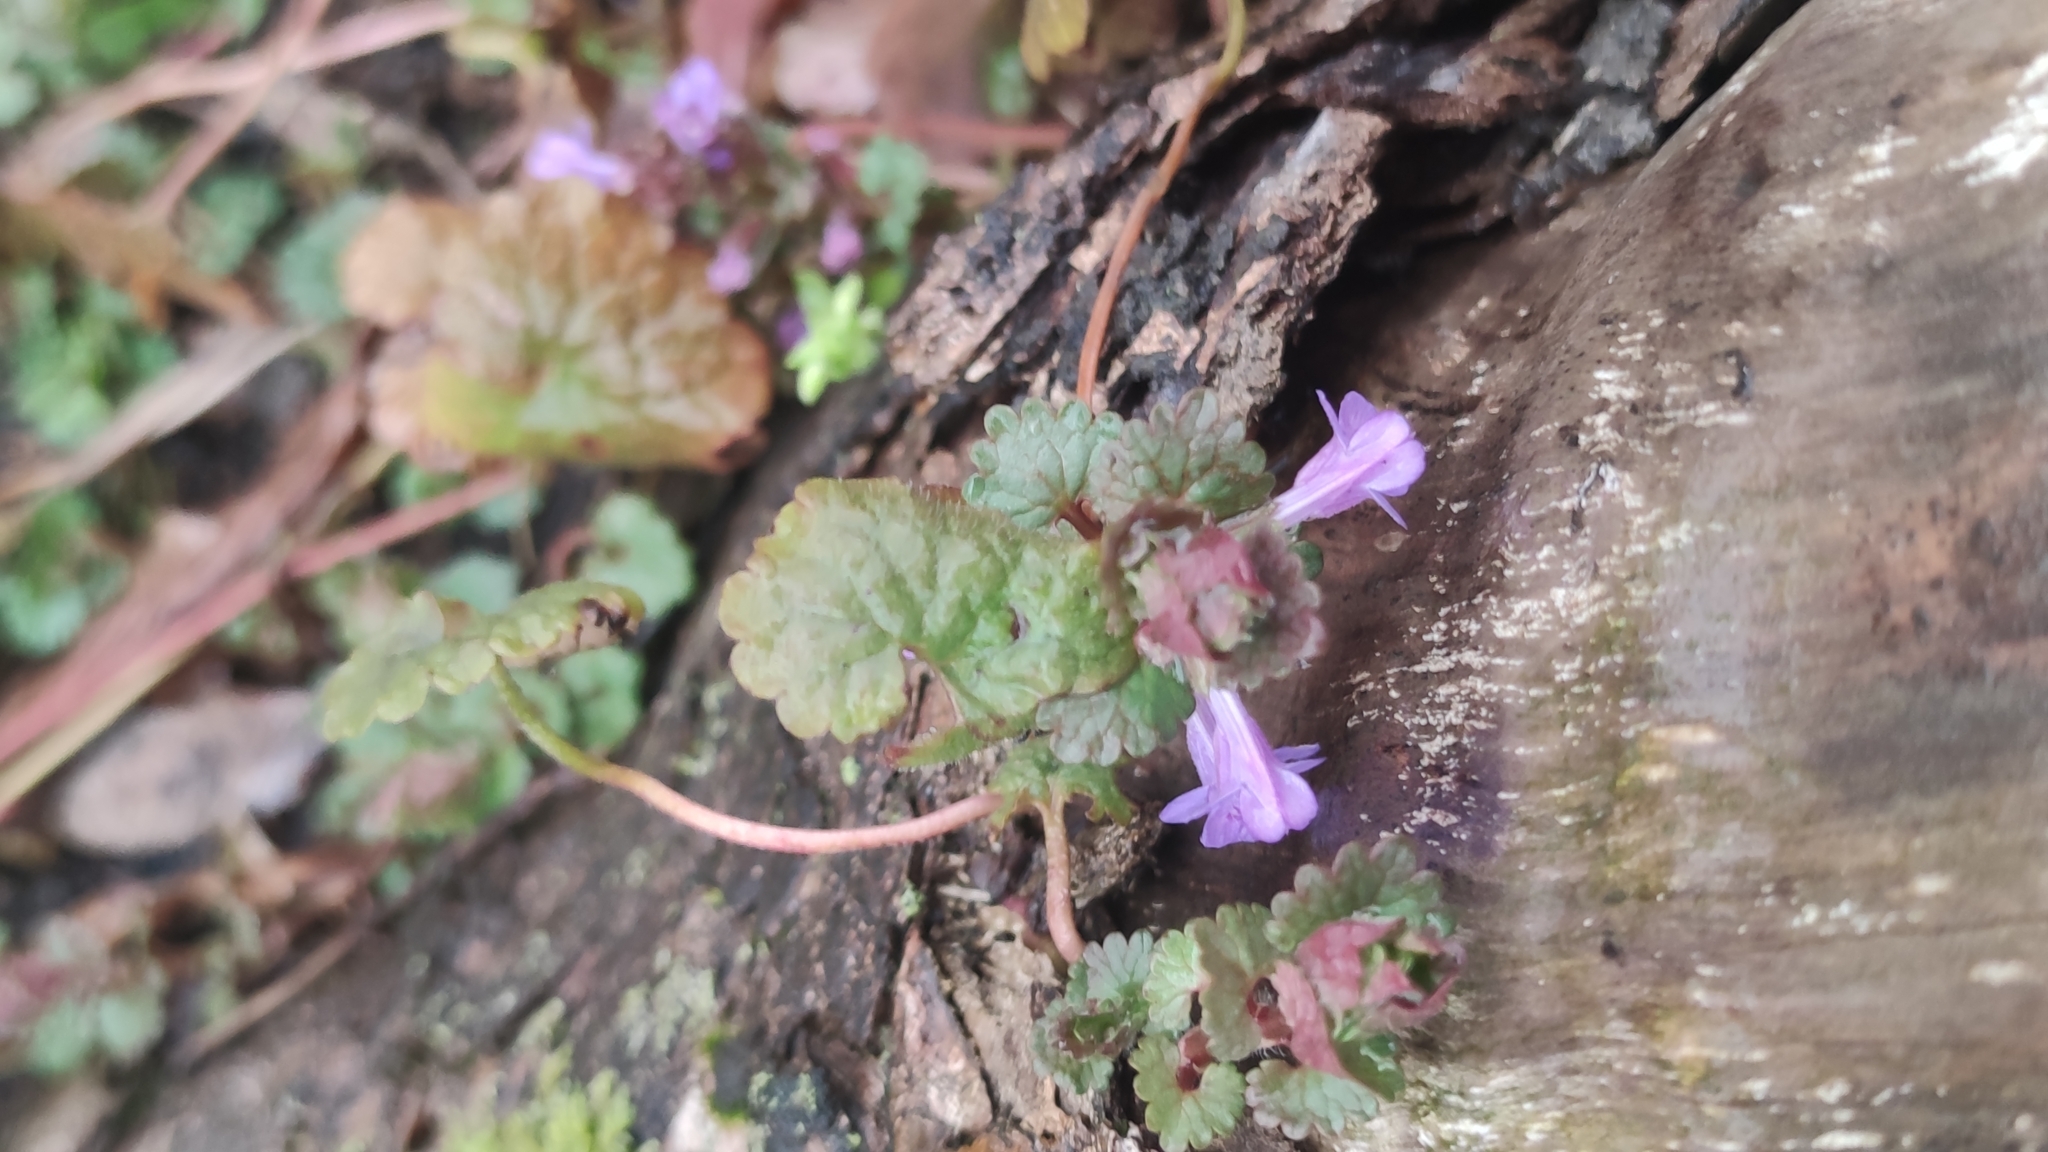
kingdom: Plantae
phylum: Tracheophyta
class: Magnoliopsida
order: Lamiales
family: Lamiaceae
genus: Glechoma
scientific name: Glechoma hederacea
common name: Ground ivy
